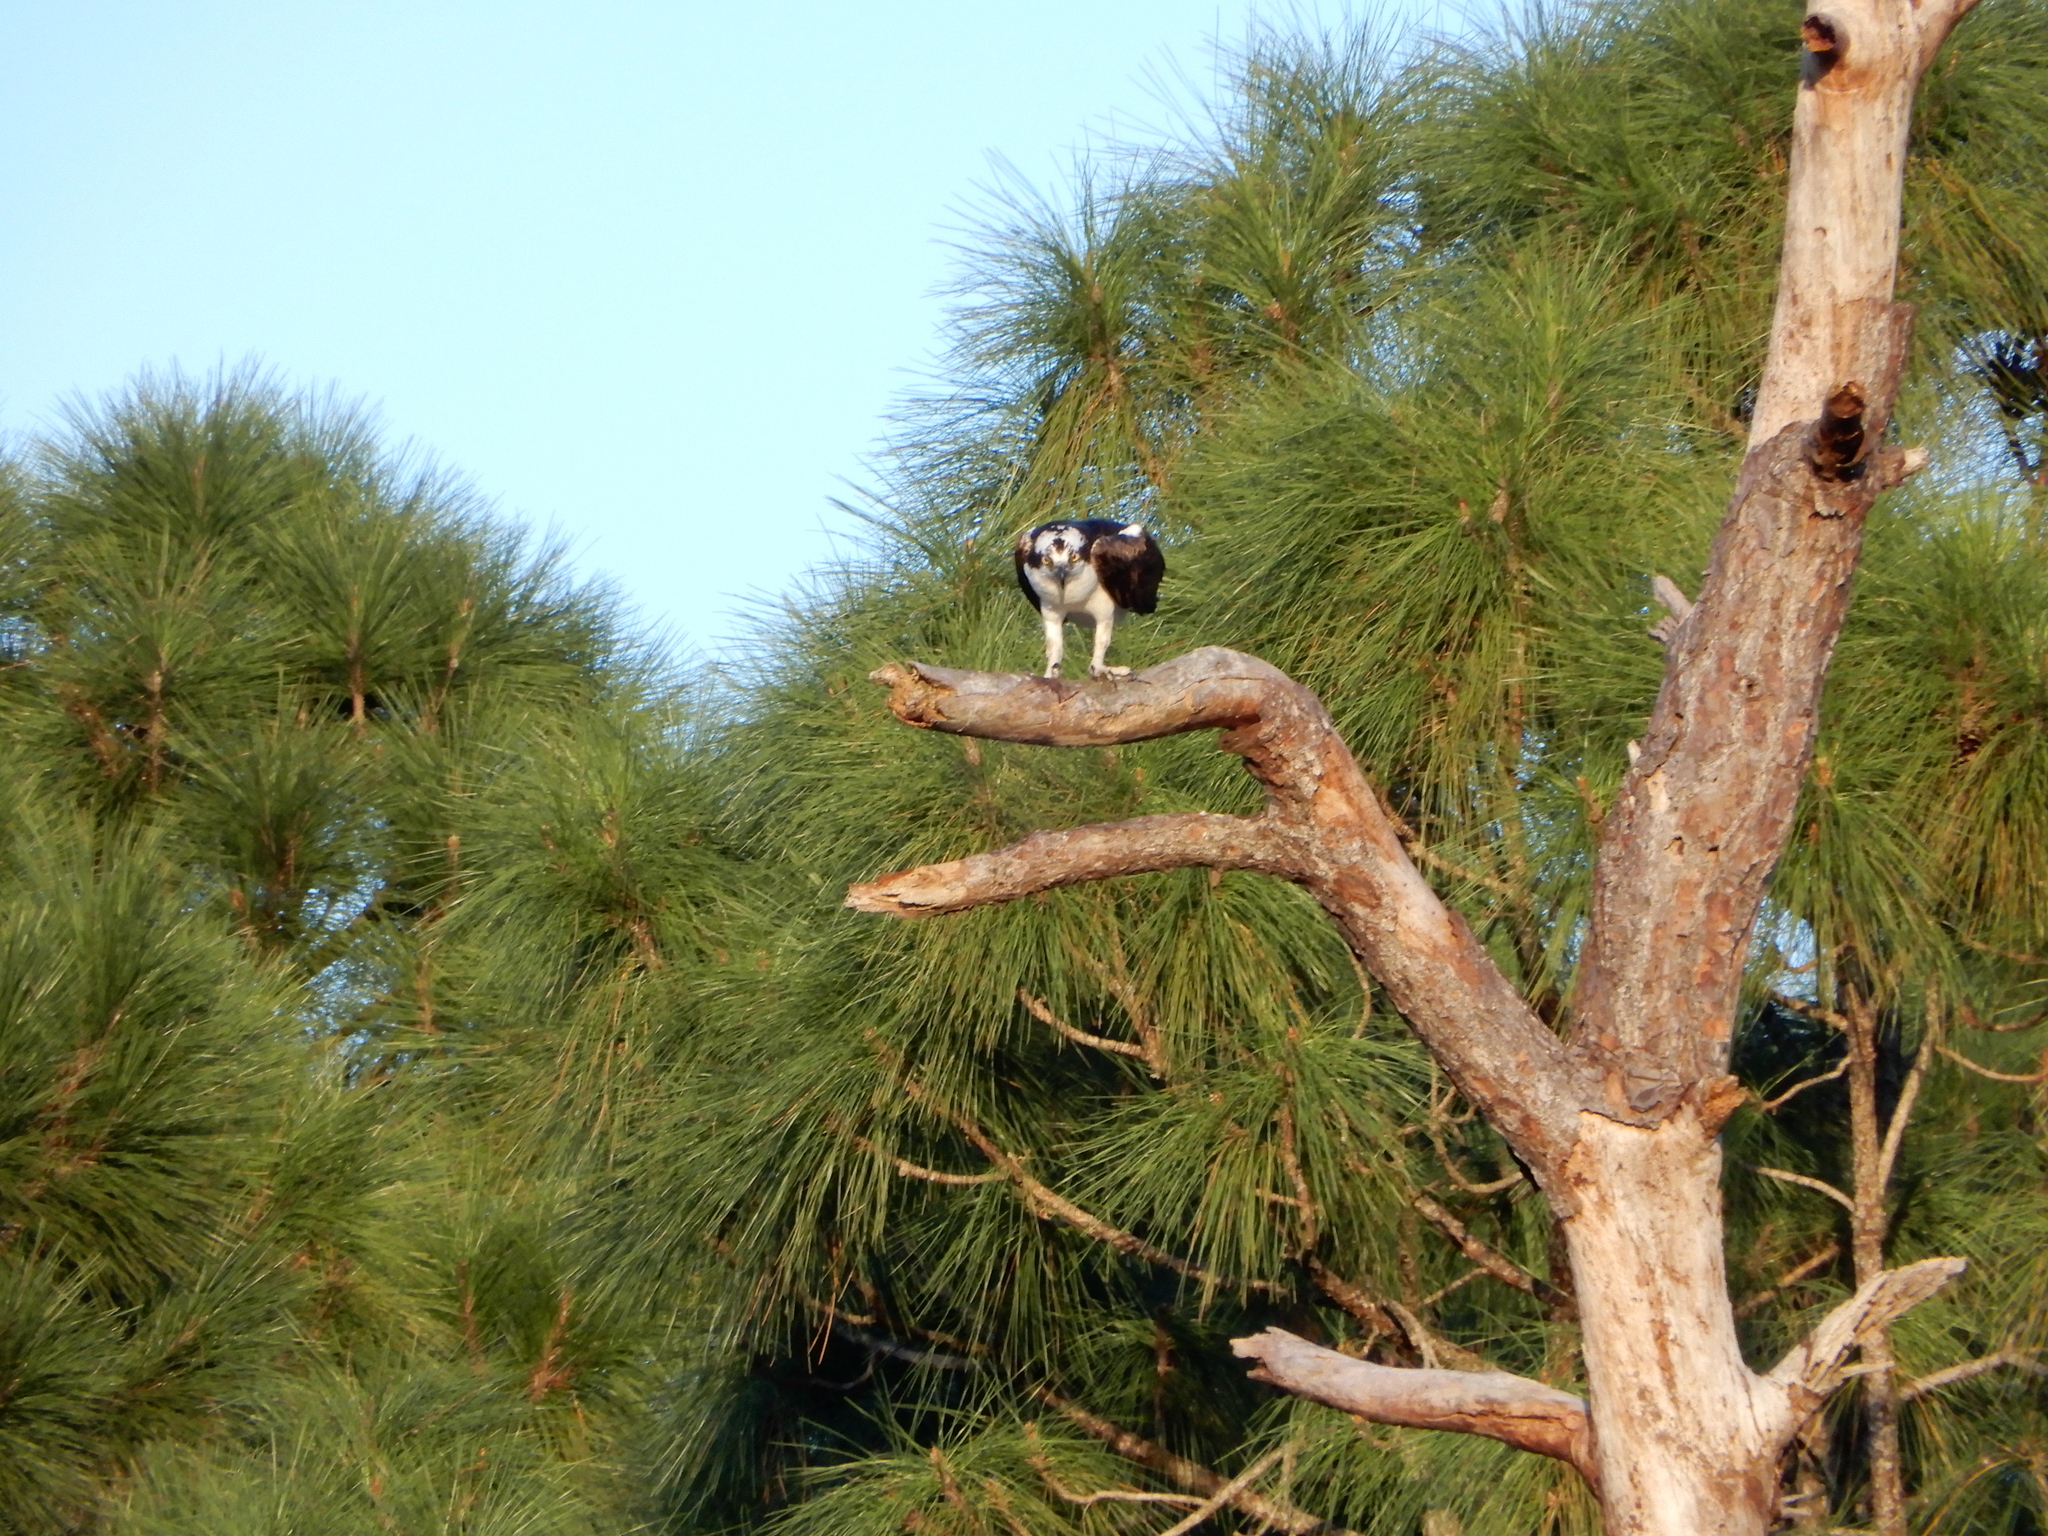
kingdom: Animalia
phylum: Chordata
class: Aves
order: Accipitriformes
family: Pandionidae
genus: Pandion
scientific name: Pandion haliaetus
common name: Osprey
